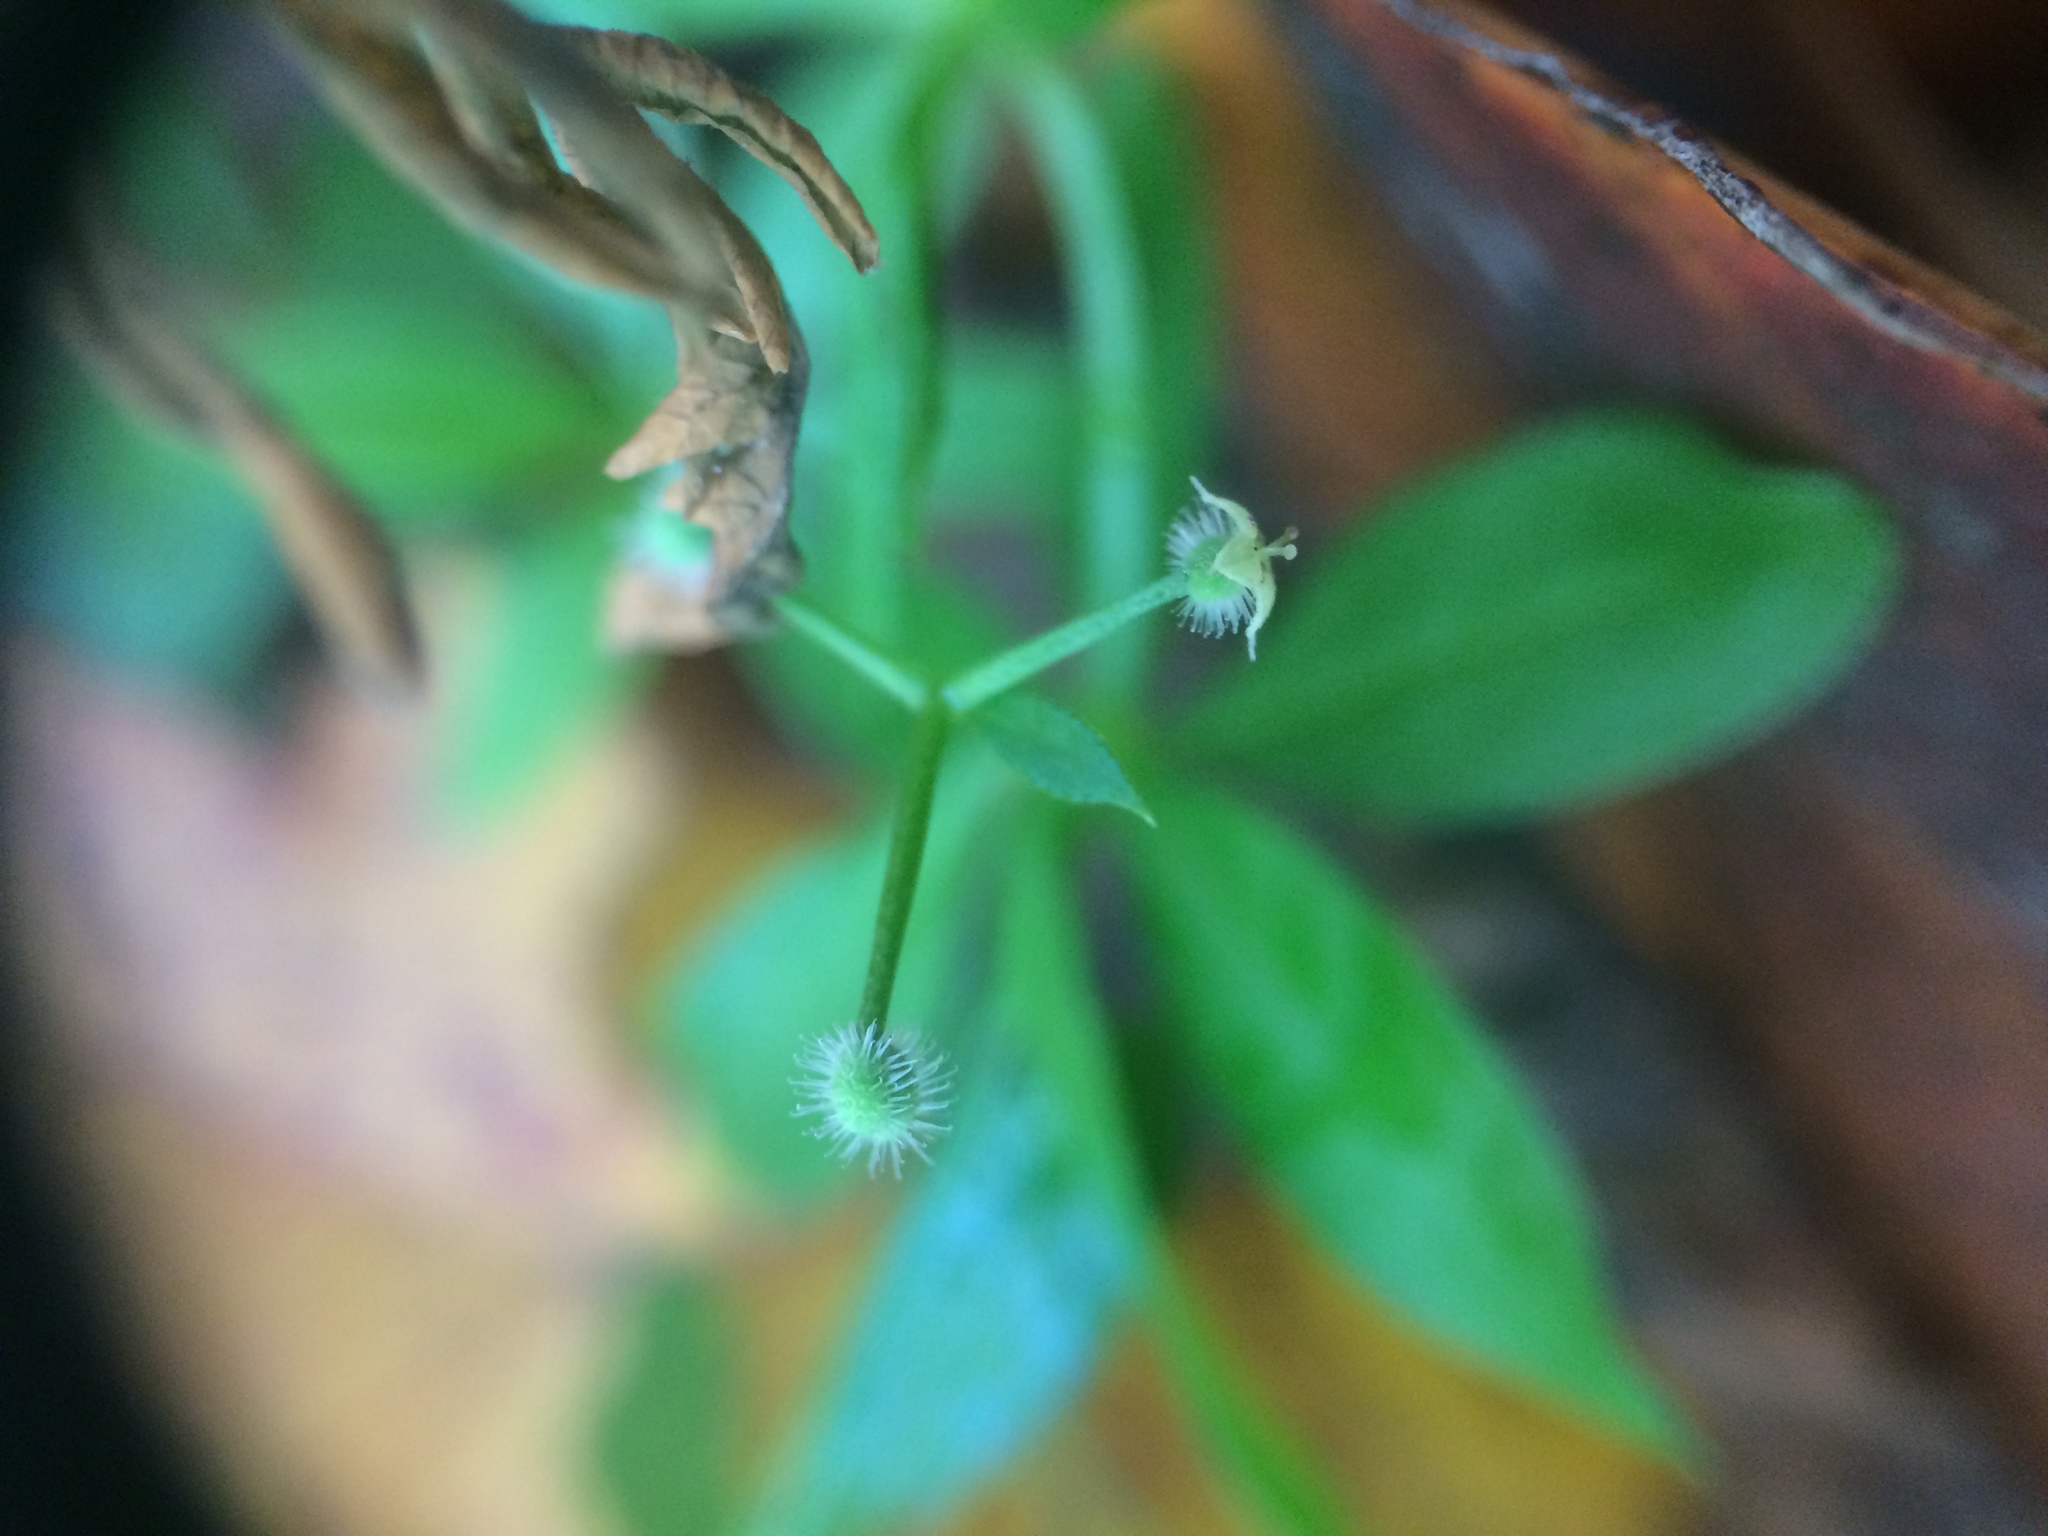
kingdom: Plantae
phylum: Tracheophyta
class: Magnoliopsida
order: Gentianales
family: Rubiaceae
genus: Galium
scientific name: Galium triflorum
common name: Fragrant bedstraw
